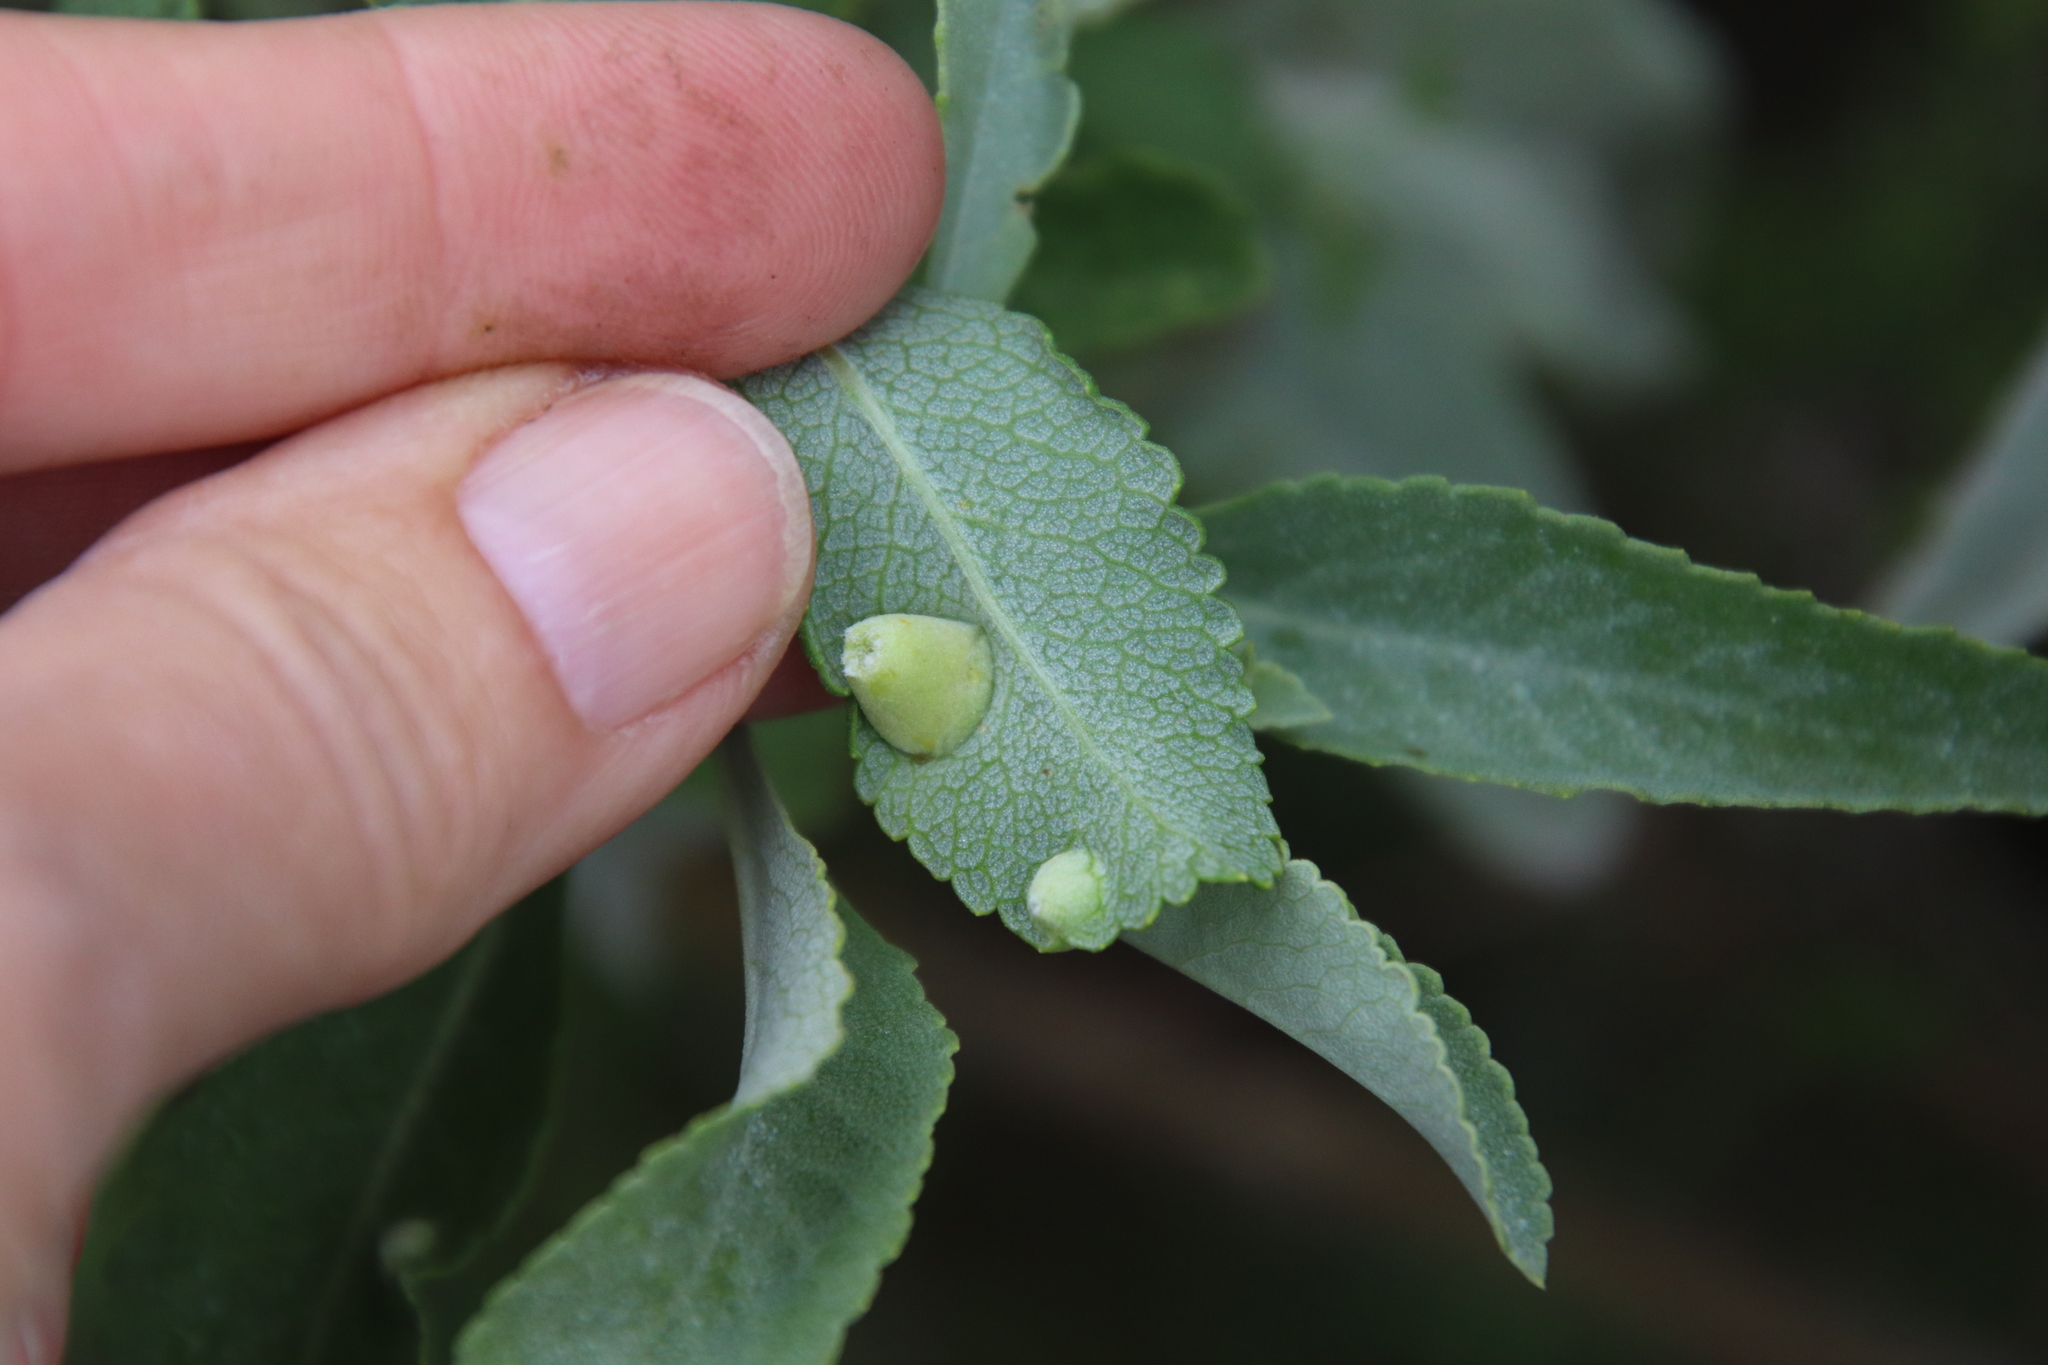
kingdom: Animalia
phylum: Arthropoda
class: Insecta
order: Diptera
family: Cecidomyiidae
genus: Rhopalomyia
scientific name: Rhopalomyia audibertiae
